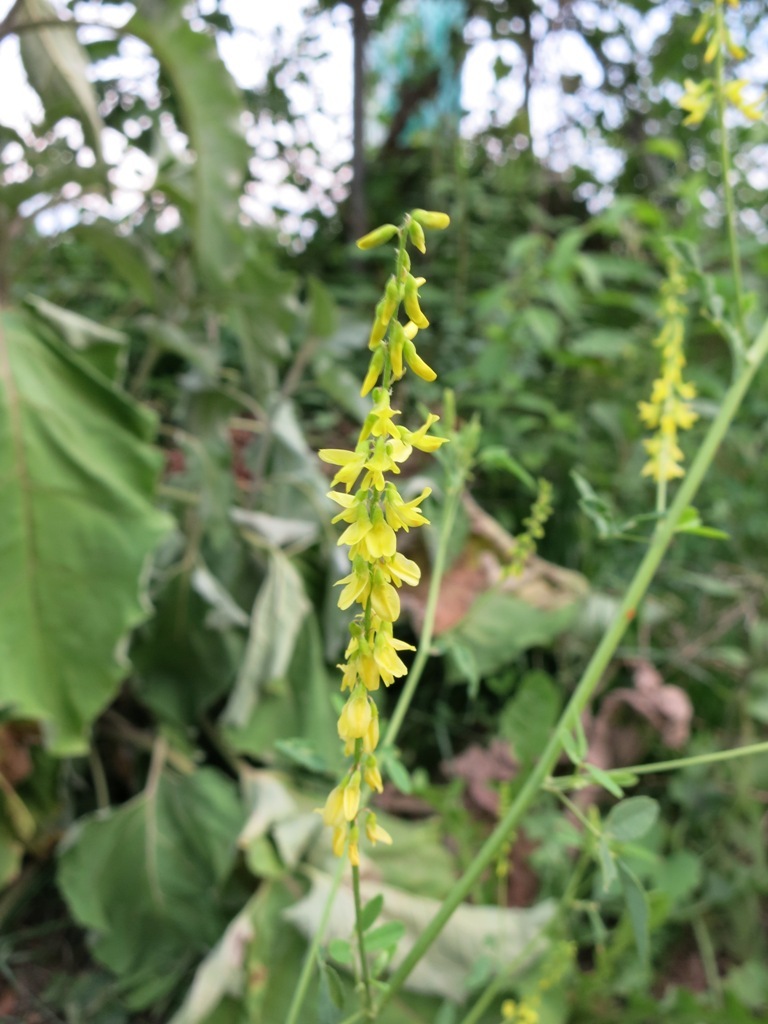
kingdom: Plantae
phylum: Tracheophyta
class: Magnoliopsida
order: Fabales
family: Fabaceae
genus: Melilotus
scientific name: Melilotus officinalis
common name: Sweetclover
